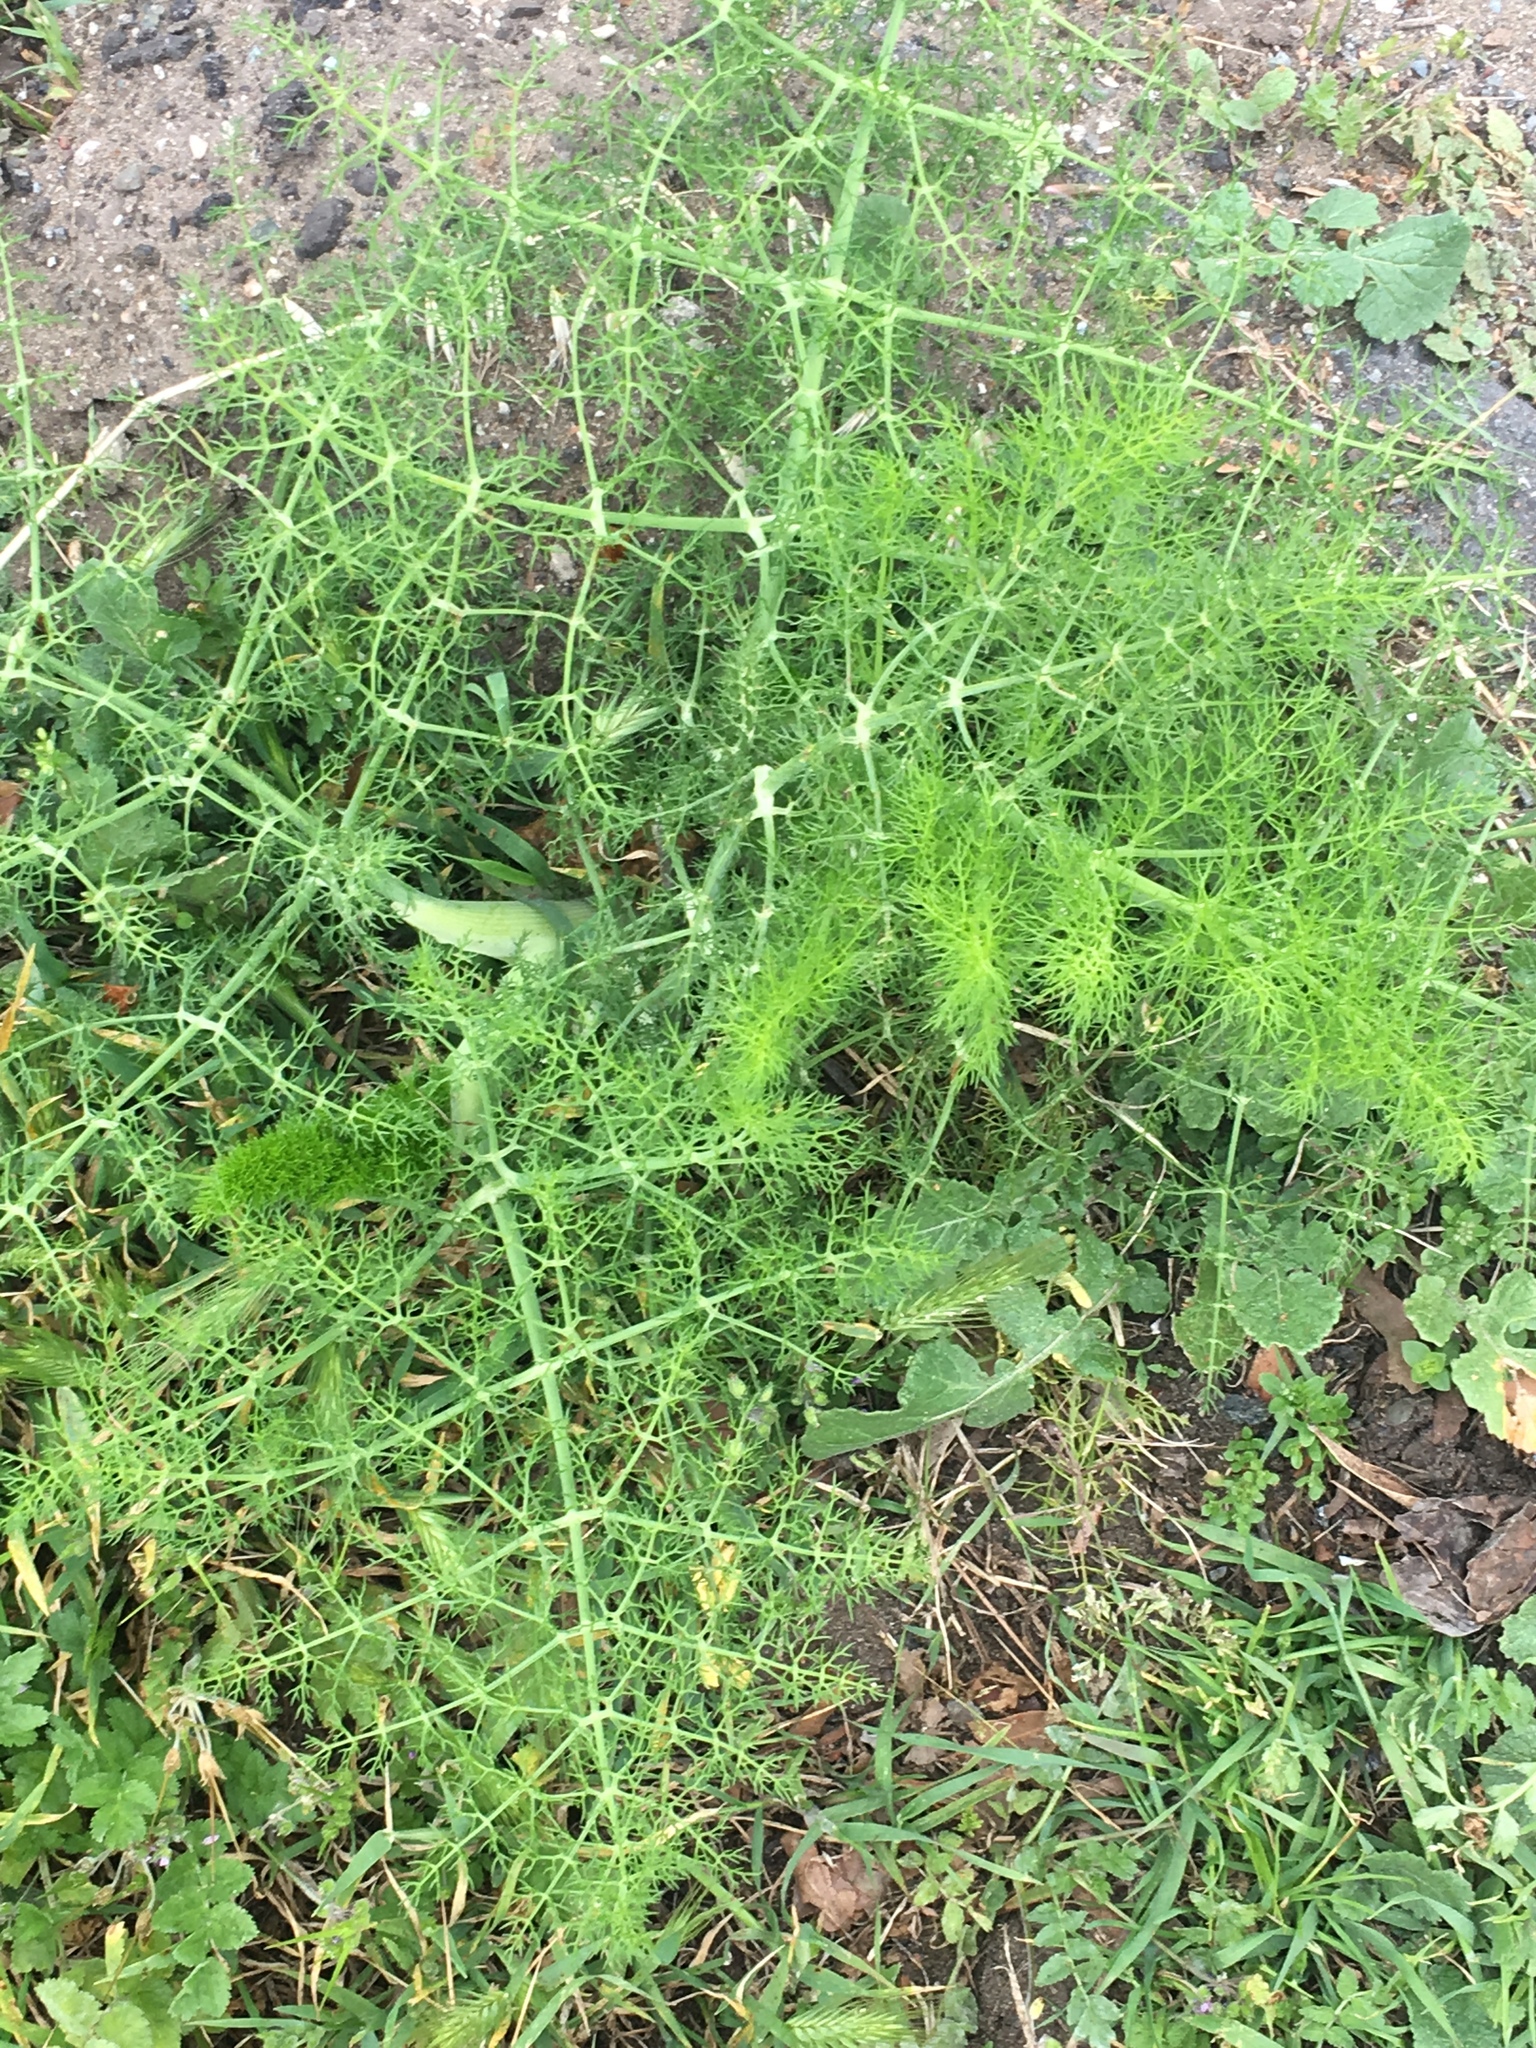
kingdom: Plantae
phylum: Tracheophyta
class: Magnoliopsida
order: Apiales
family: Apiaceae
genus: Foeniculum
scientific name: Foeniculum vulgare
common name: Fennel
